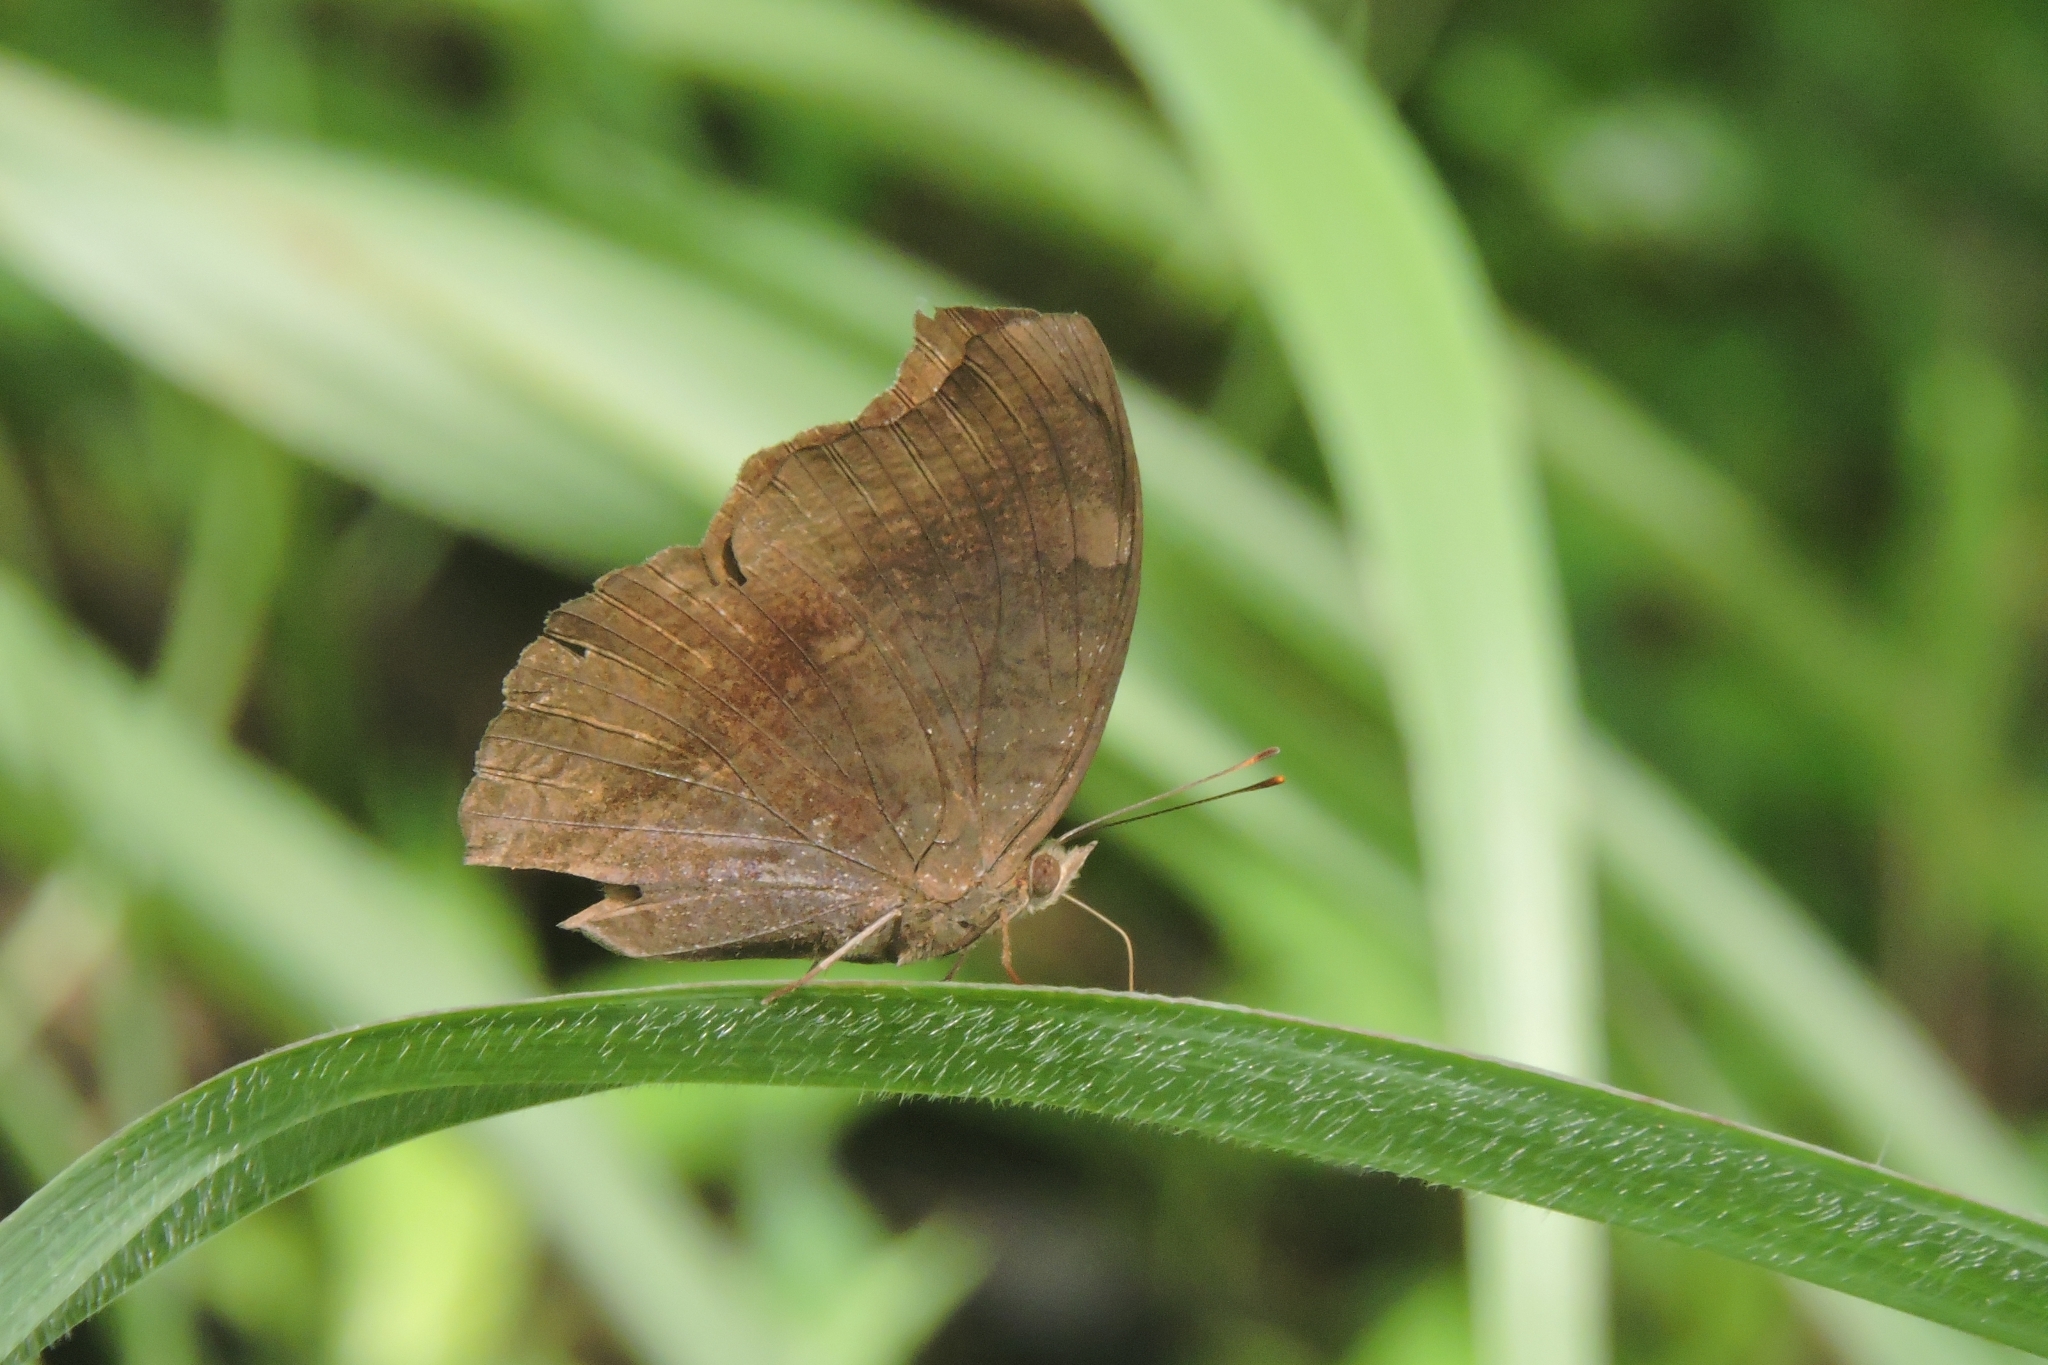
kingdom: Animalia
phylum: Arthropoda
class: Insecta
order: Lepidoptera
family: Nymphalidae
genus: Junonia
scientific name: Junonia iphita
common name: Chocolate pansy
